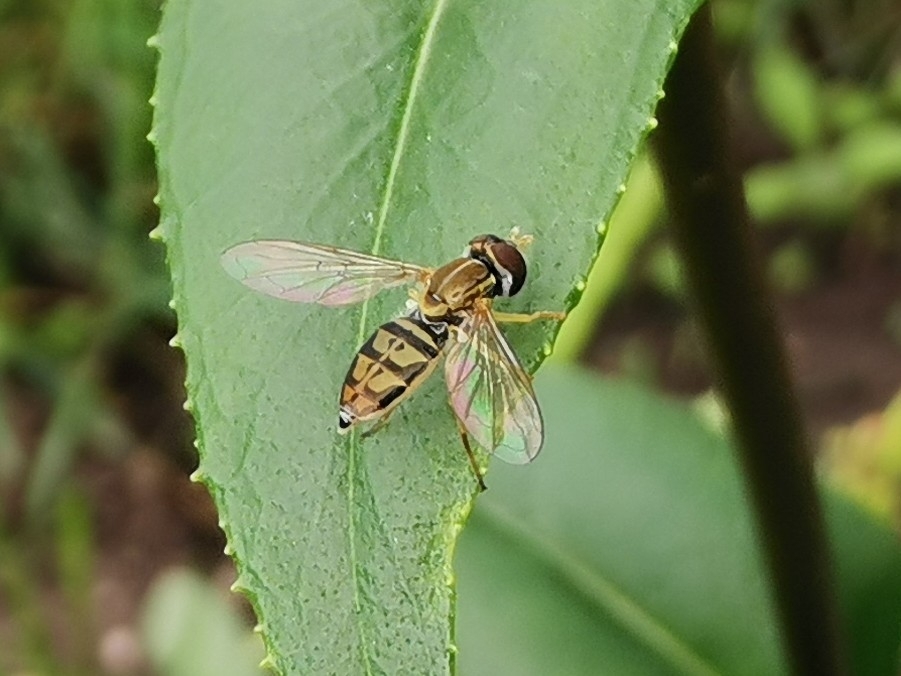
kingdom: Animalia
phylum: Arthropoda
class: Insecta
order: Diptera
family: Syrphidae
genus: Toxomerus
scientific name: Toxomerus marginatus
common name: Syrphid fly
